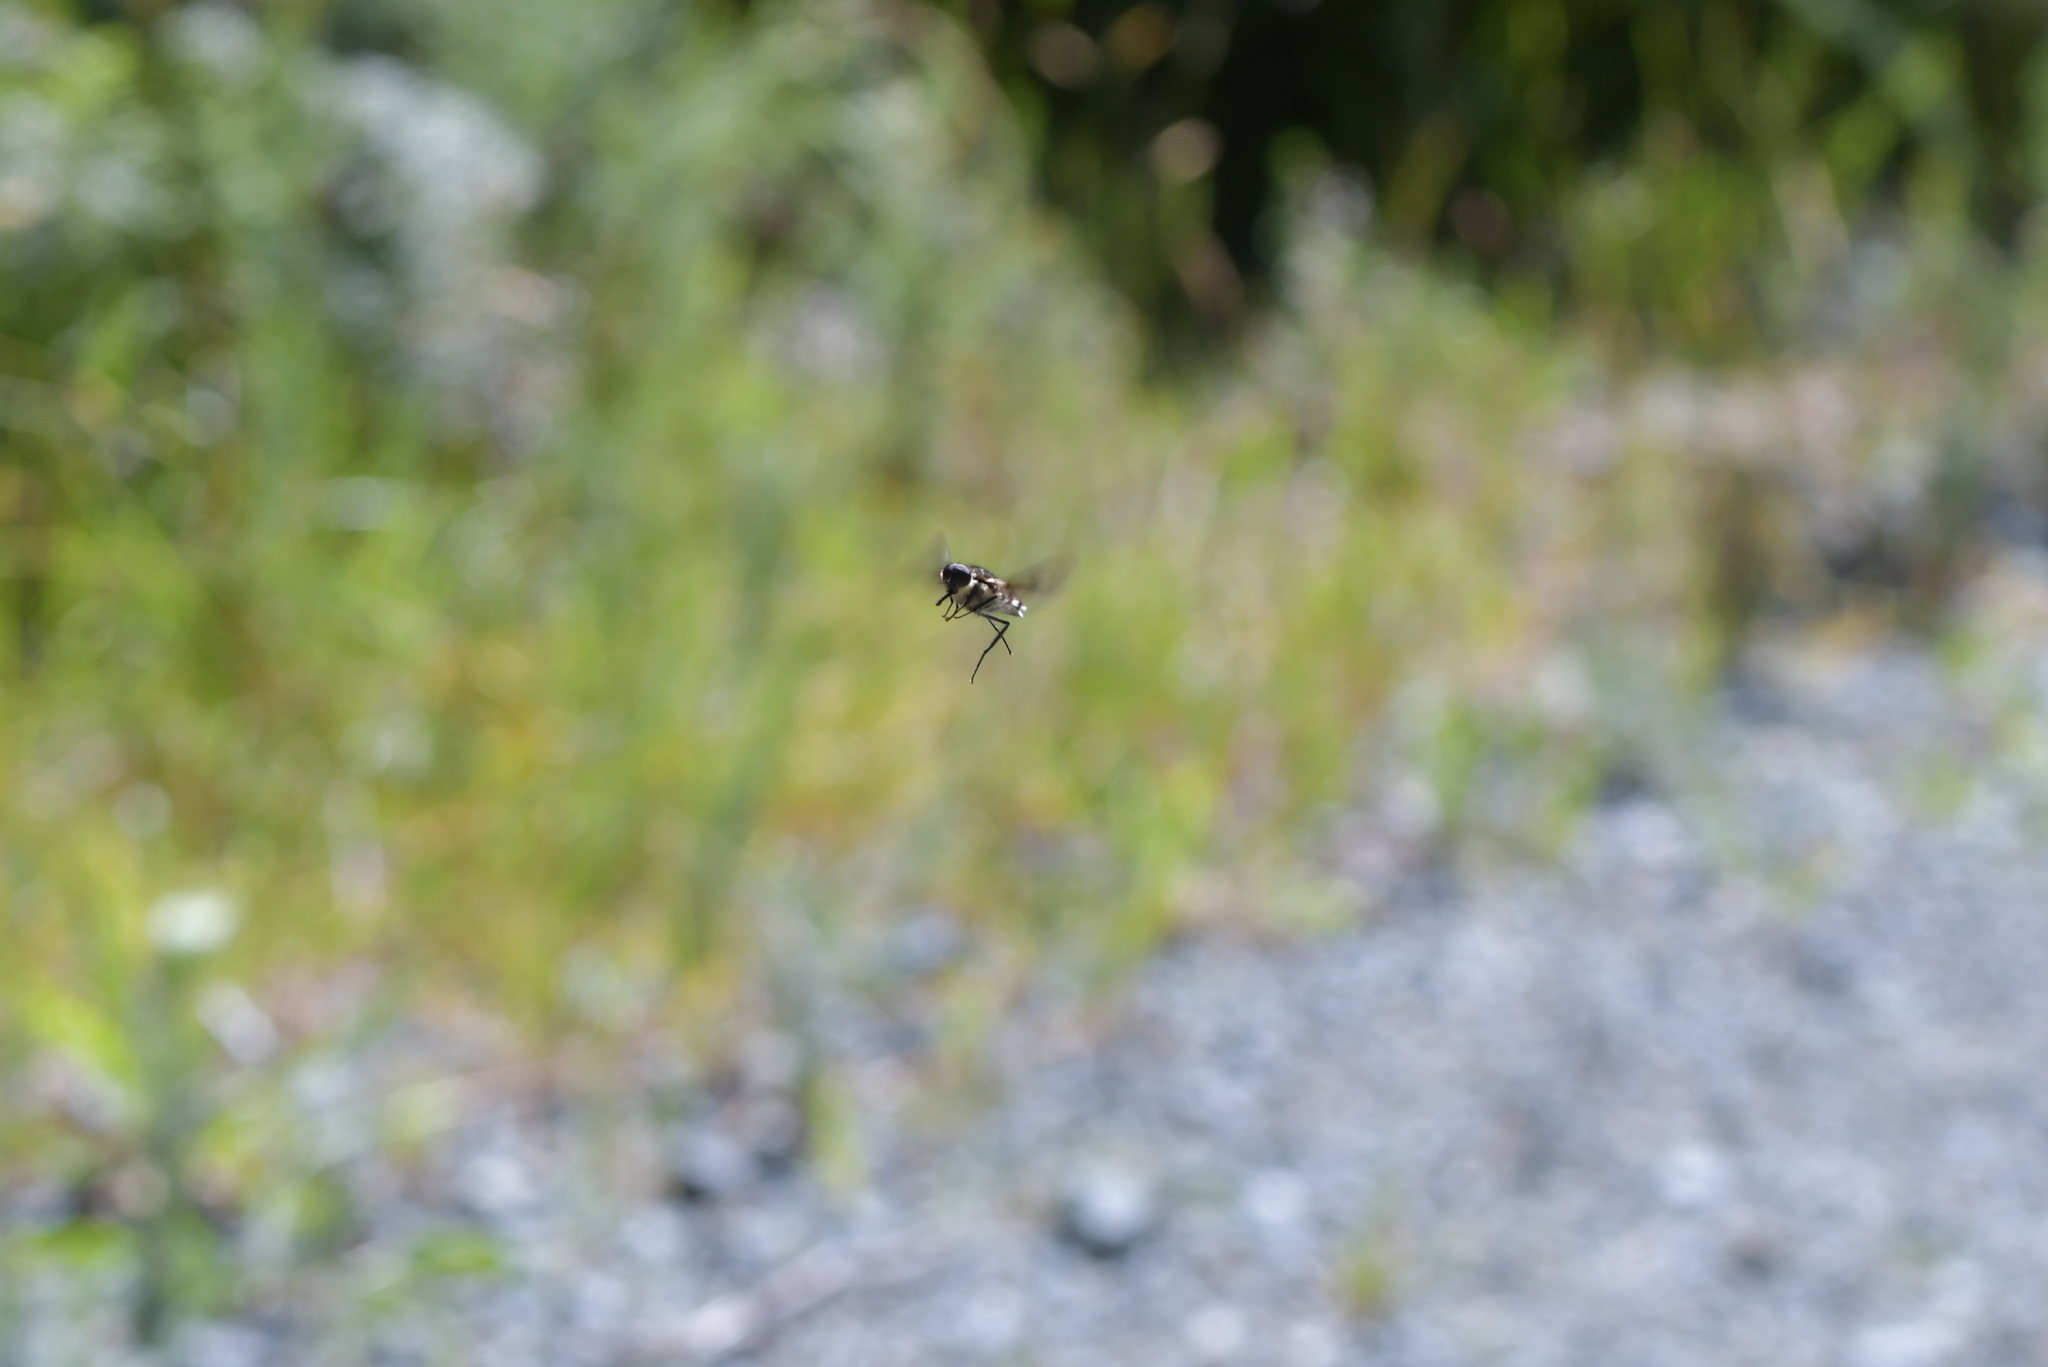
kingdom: Animalia
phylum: Arthropoda
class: Insecta
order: Diptera
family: Tabanidae
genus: Scaptia
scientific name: Scaptia
